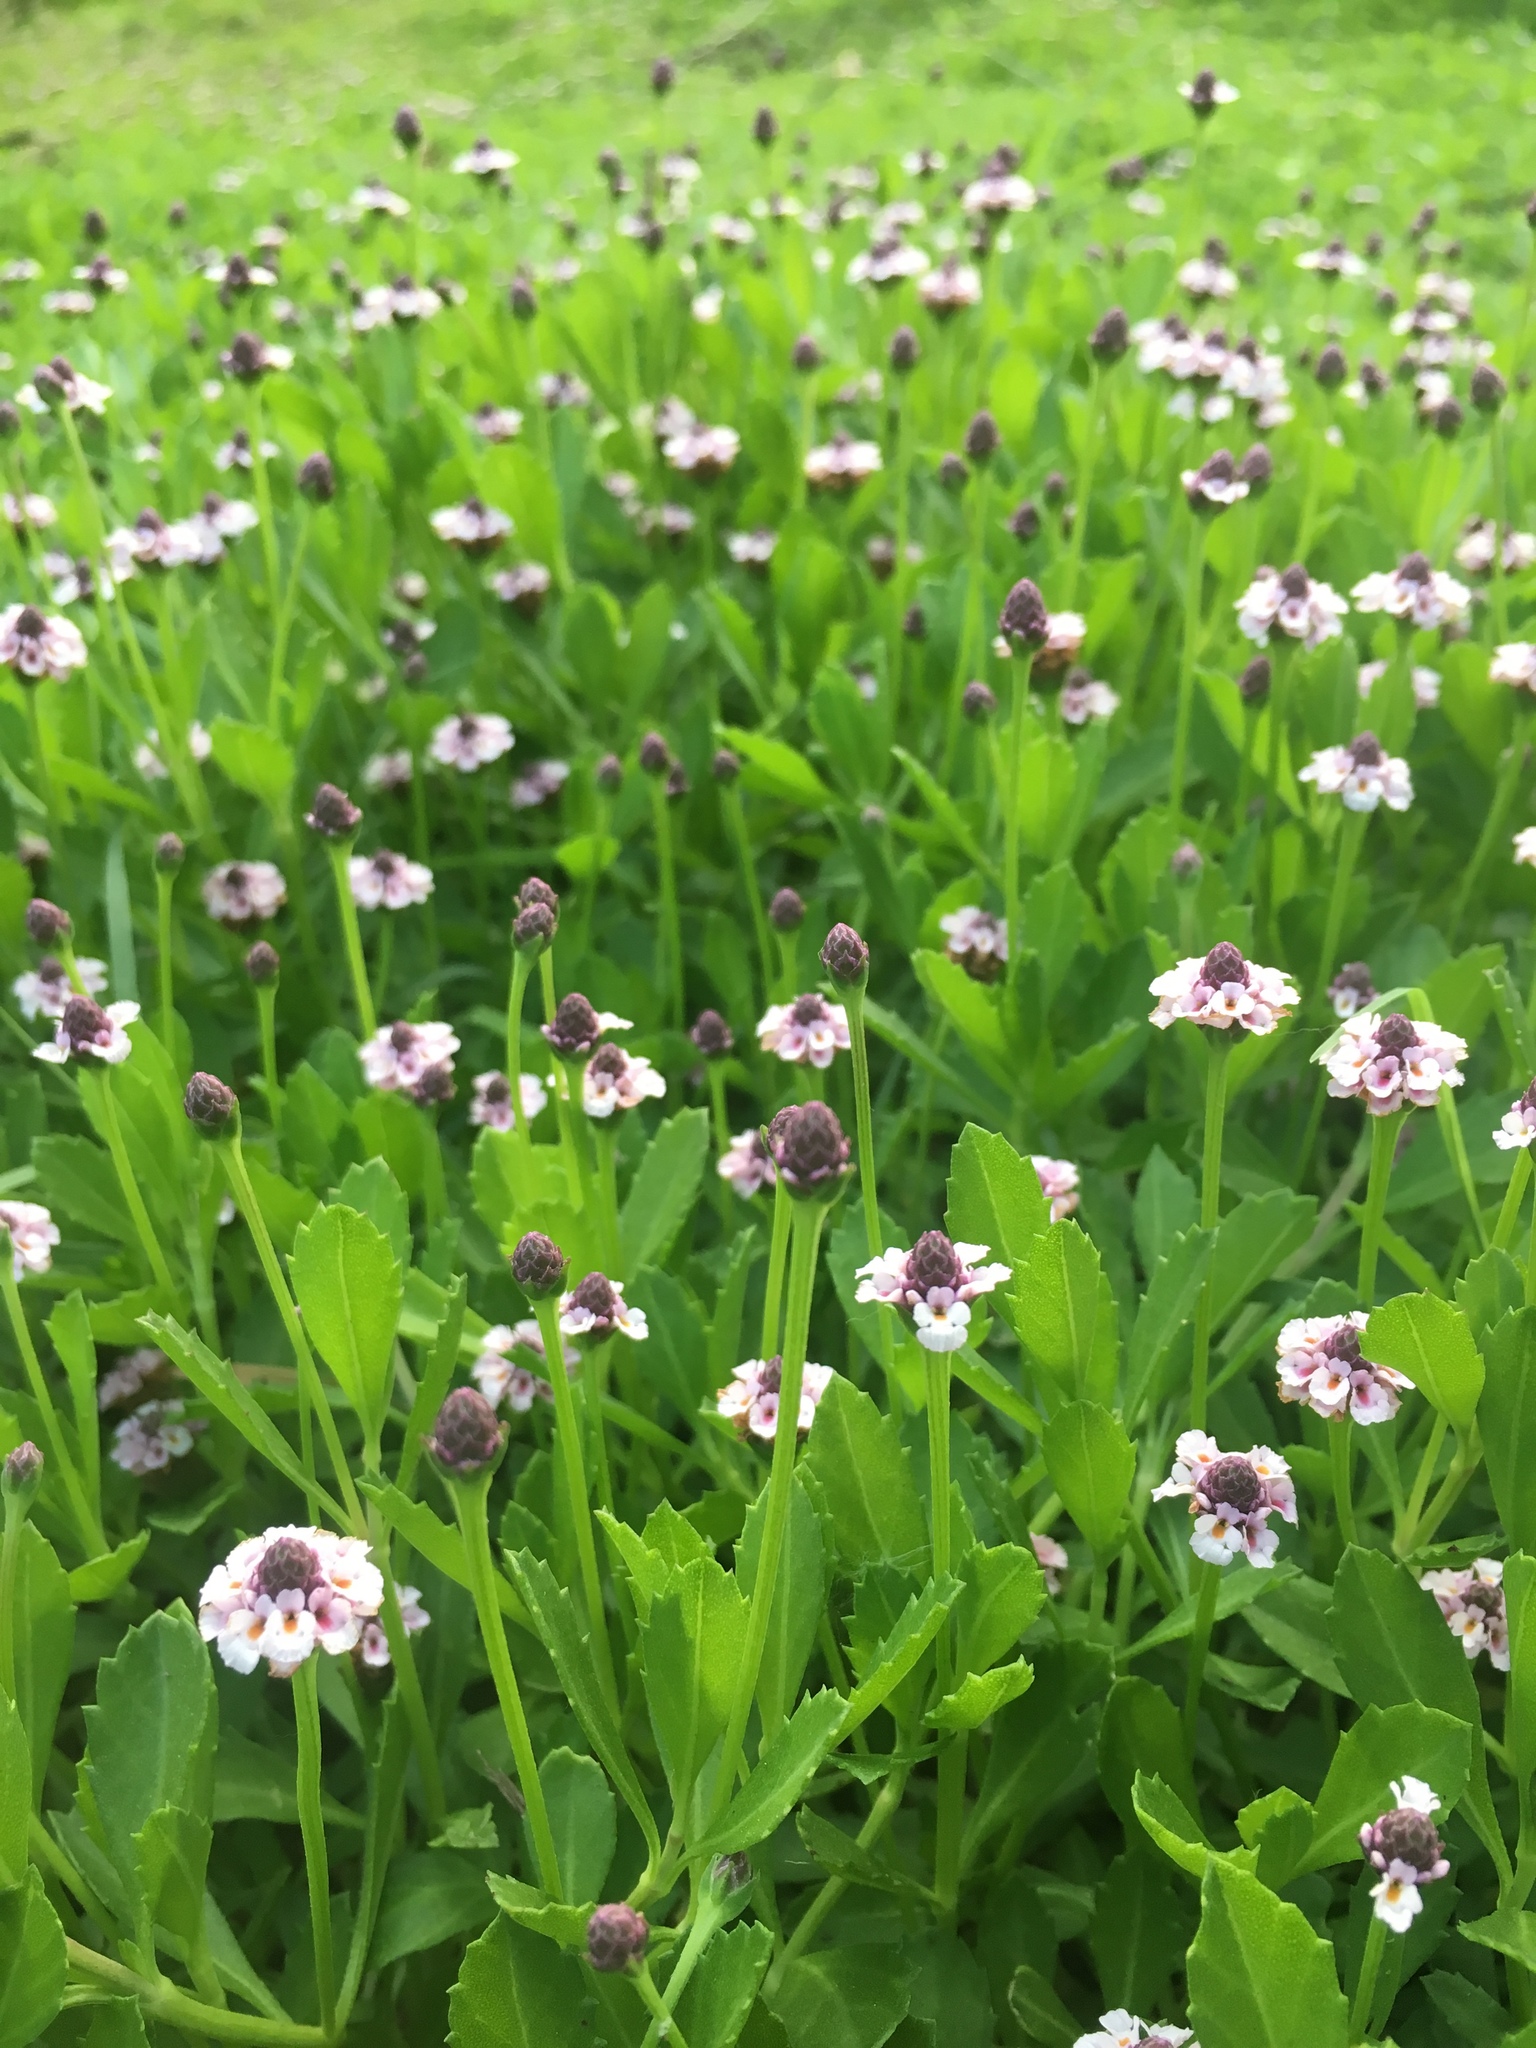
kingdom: Plantae
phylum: Tracheophyta
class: Magnoliopsida
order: Lamiales
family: Verbenaceae
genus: Phyla
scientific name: Phyla nodiflora
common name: Frogfruit
